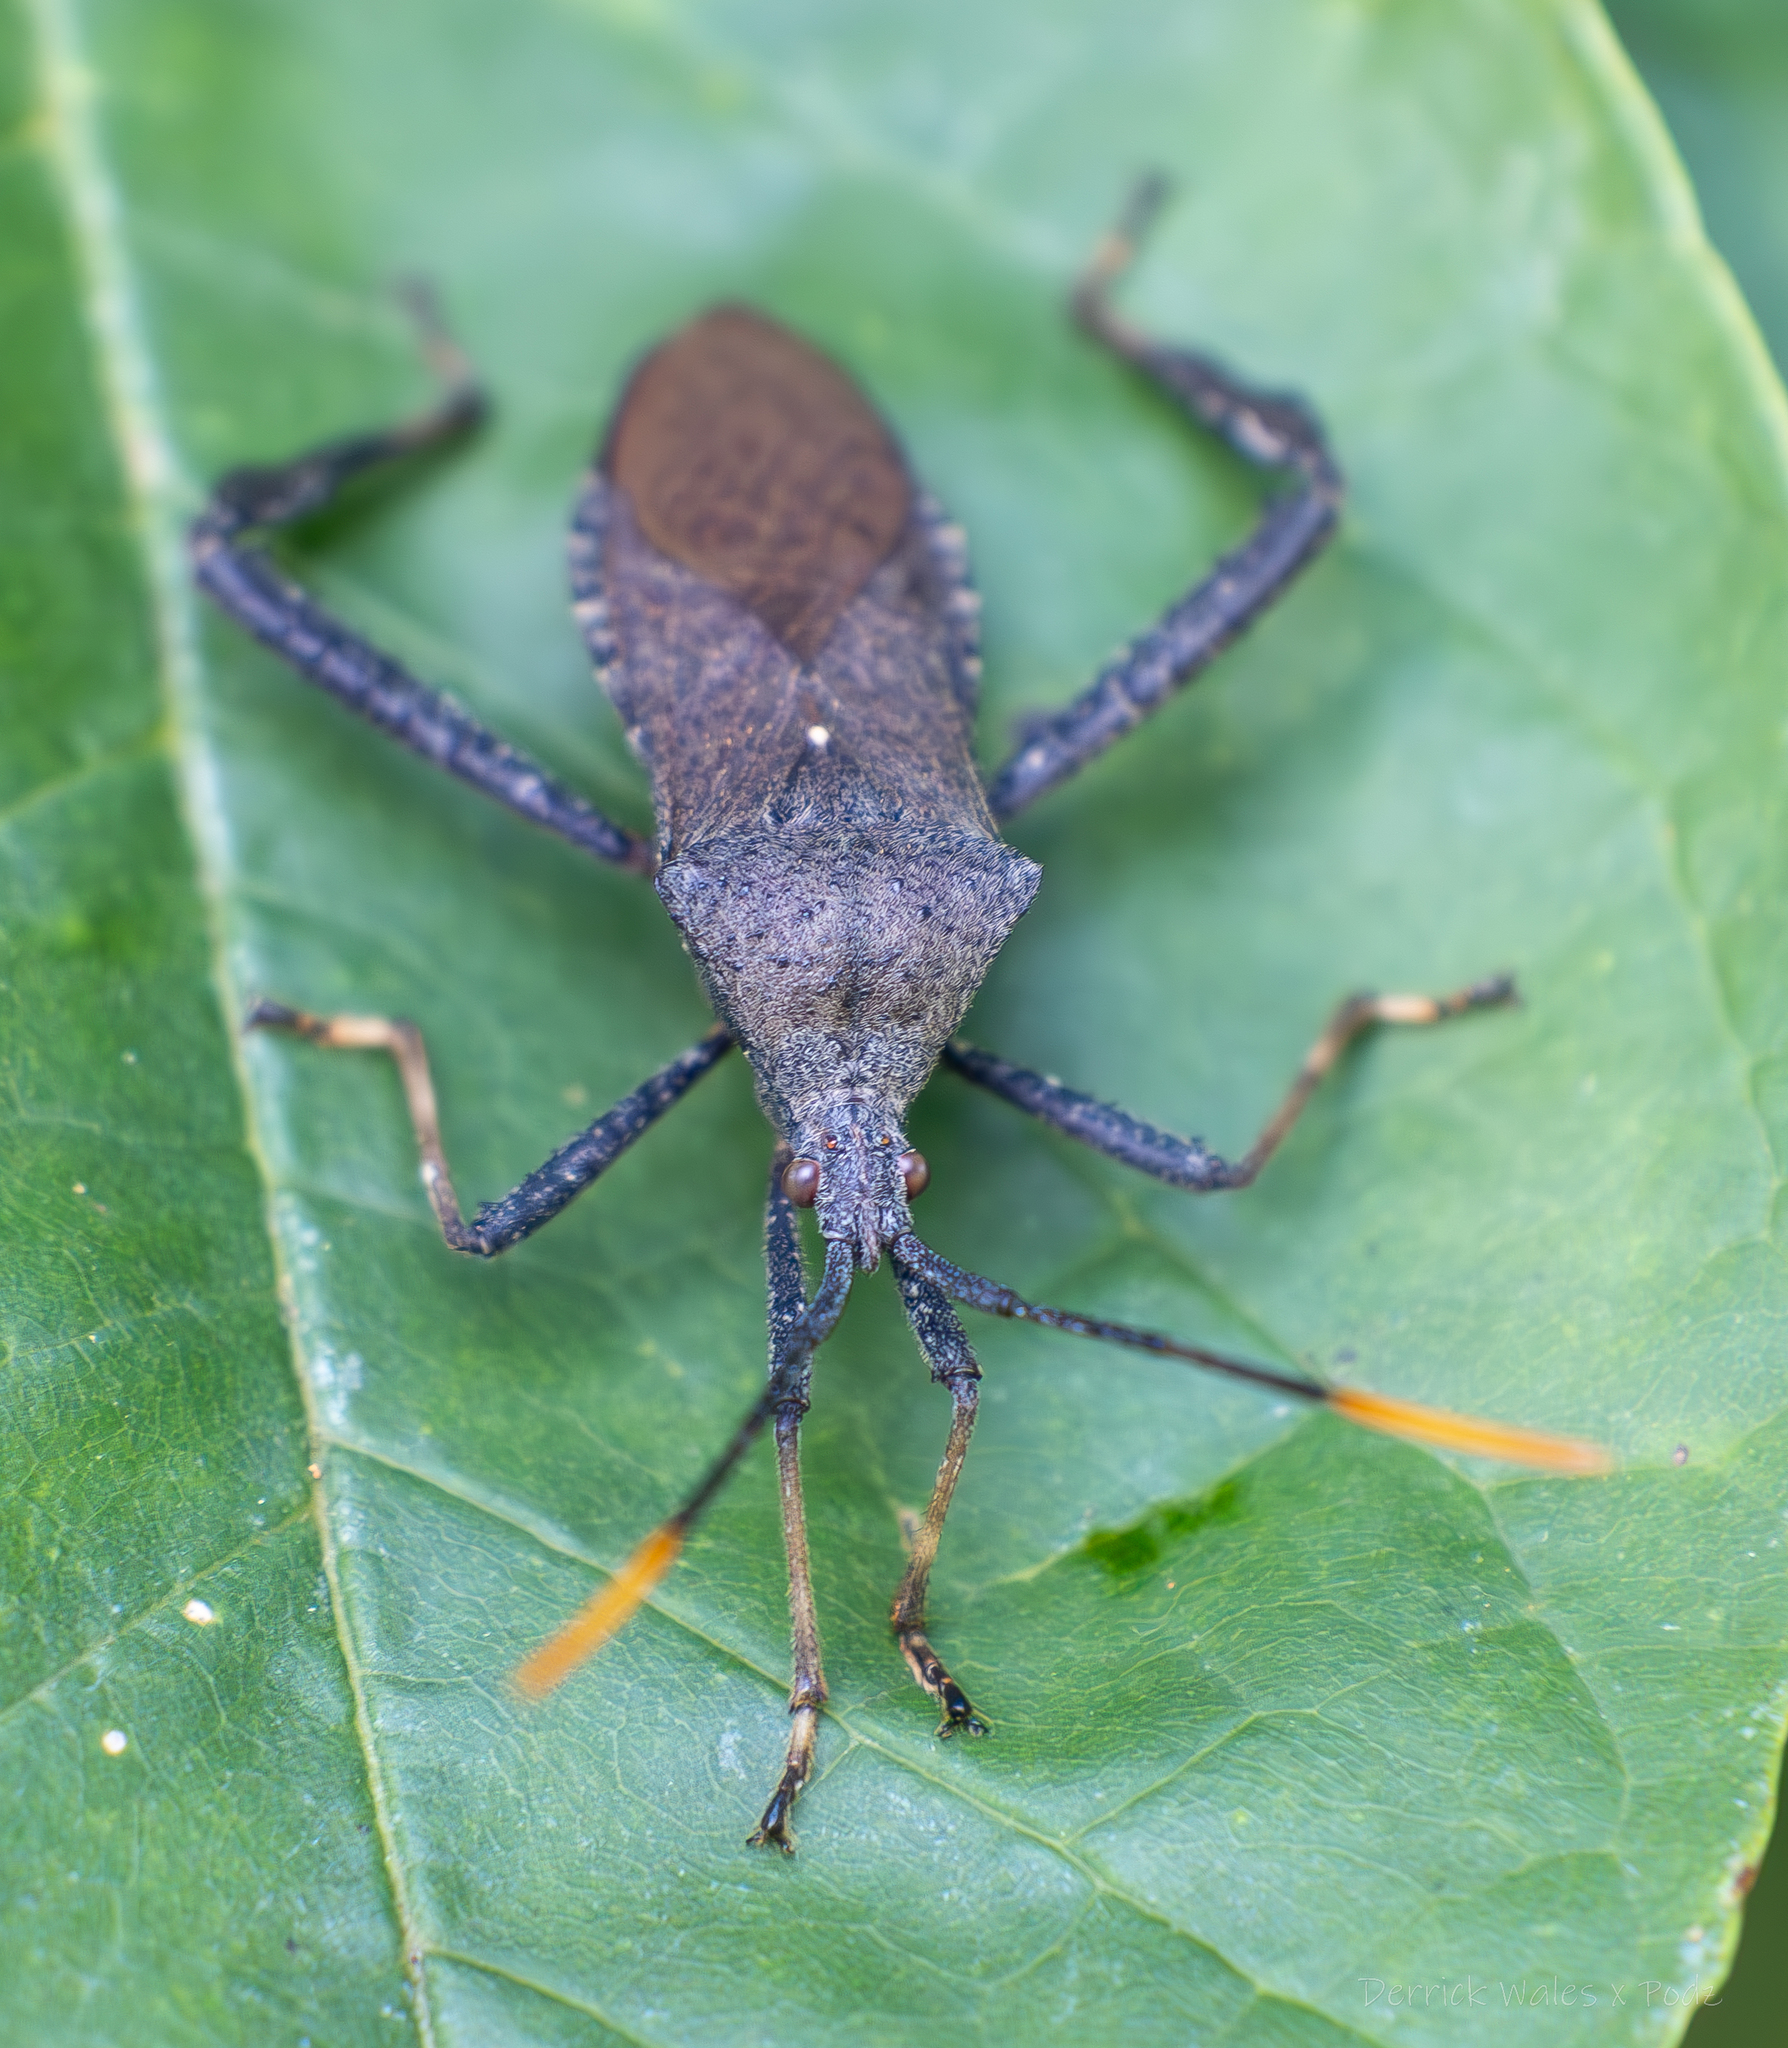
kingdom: Animalia
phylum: Arthropoda
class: Insecta
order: Hemiptera
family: Coreidae
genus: Acanthocephala
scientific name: Acanthocephala terminalis
